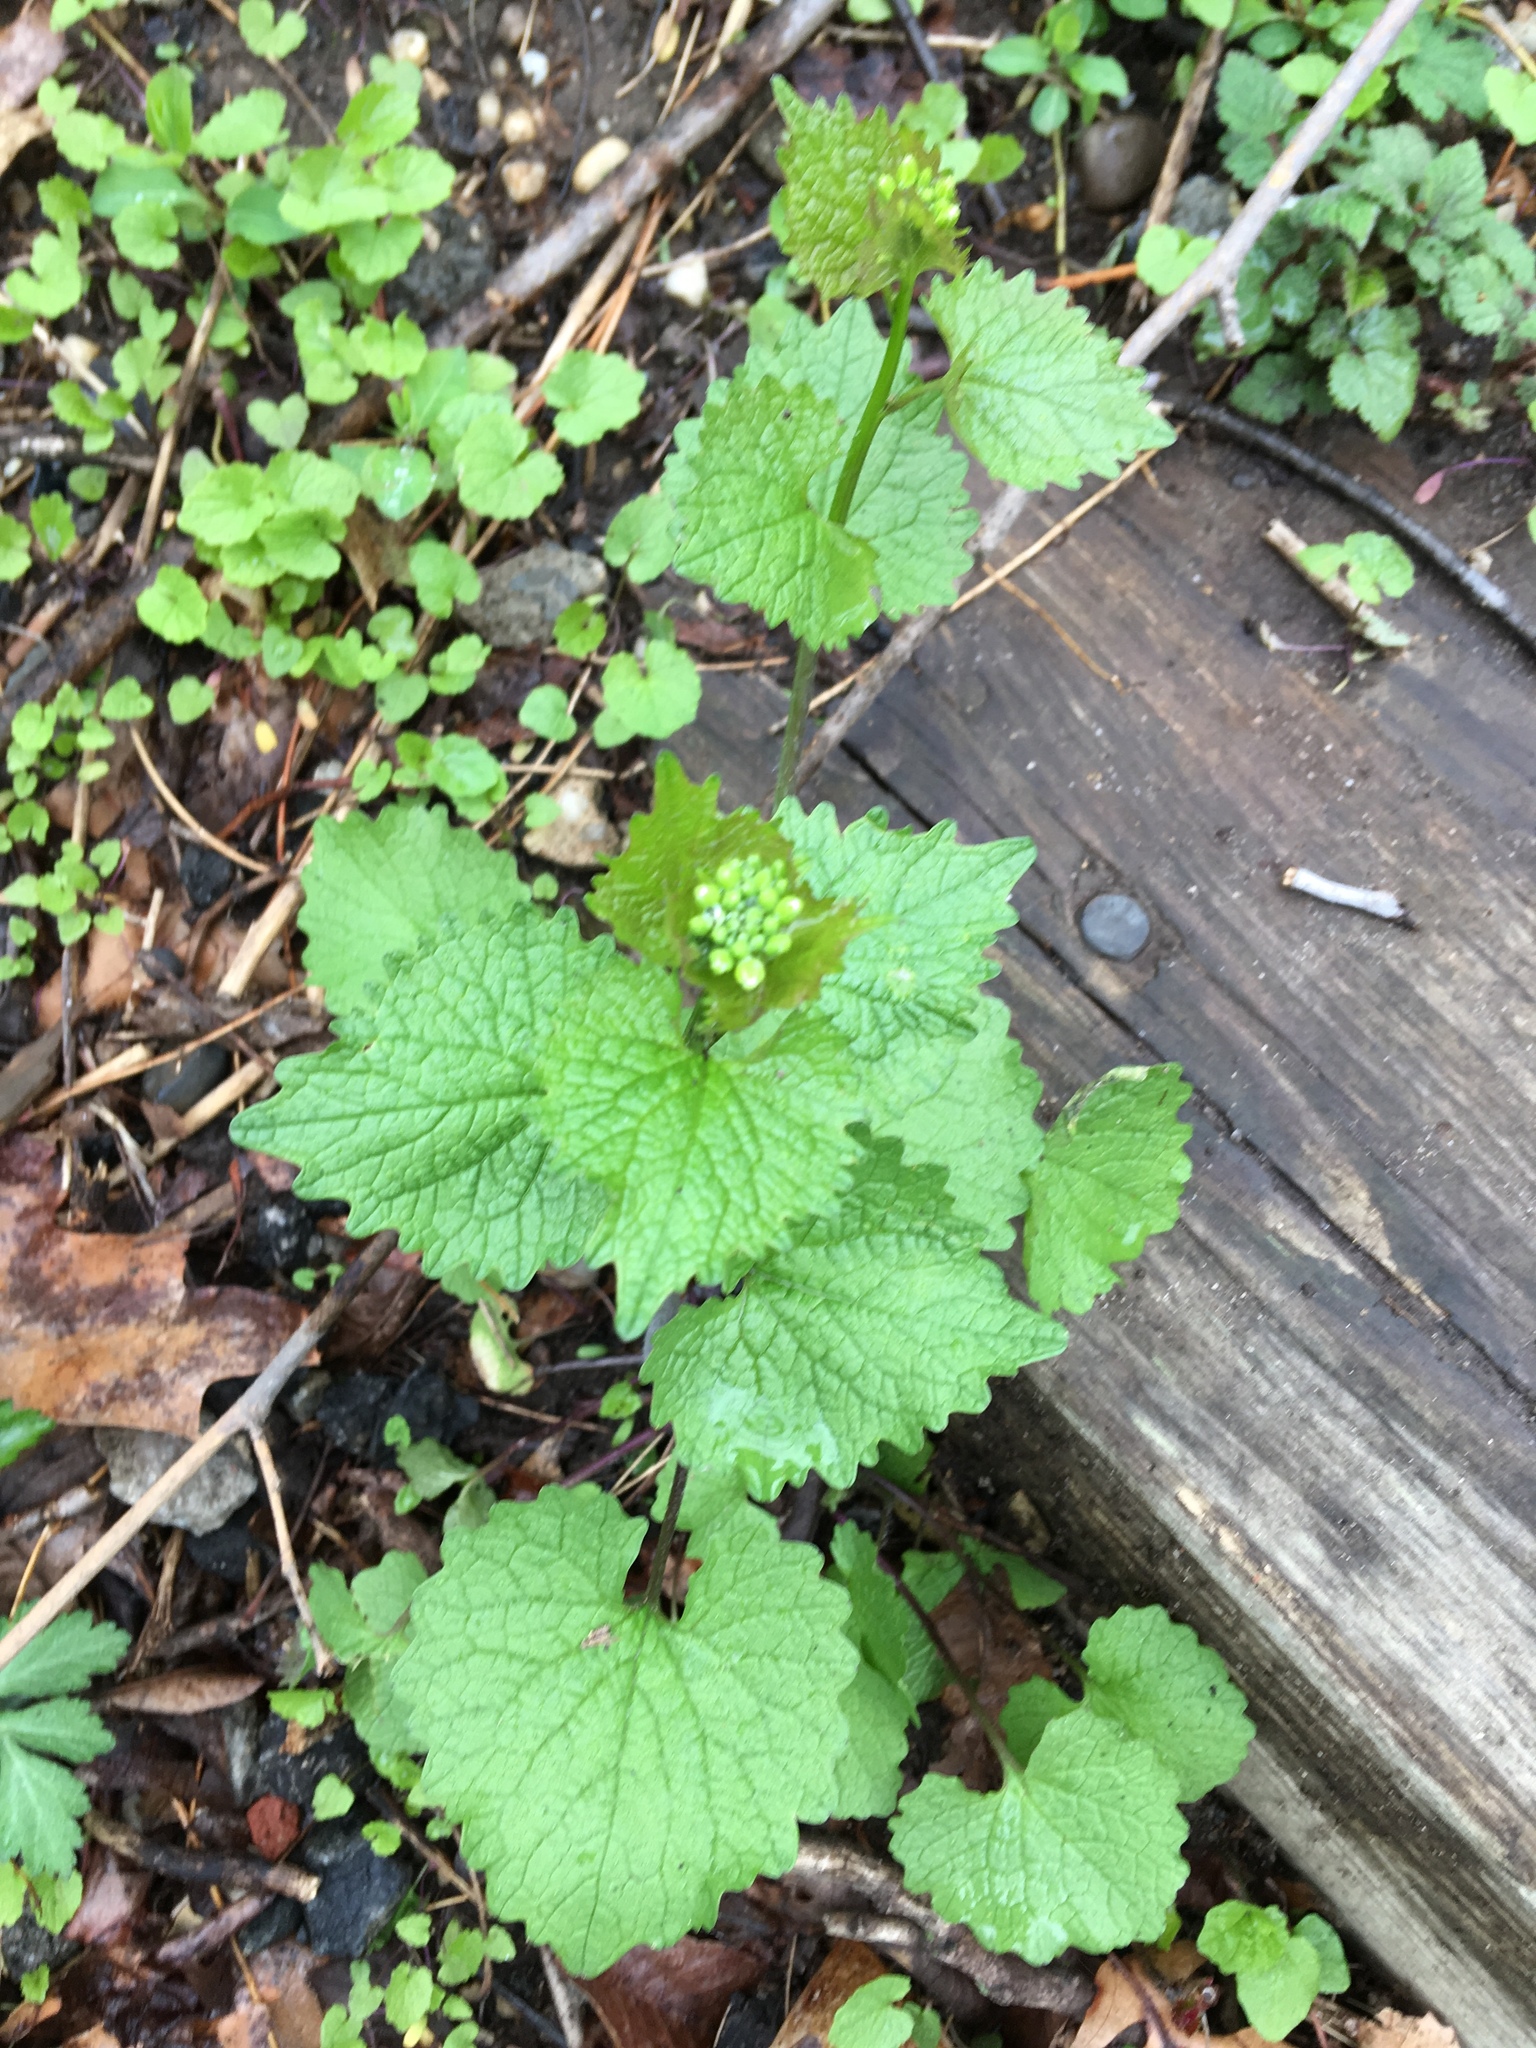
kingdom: Plantae
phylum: Tracheophyta
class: Magnoliopsida
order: Brassicales
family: Brassicaceae
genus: Alliaria
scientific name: Alliaria petiolata
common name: Garlic mustard
